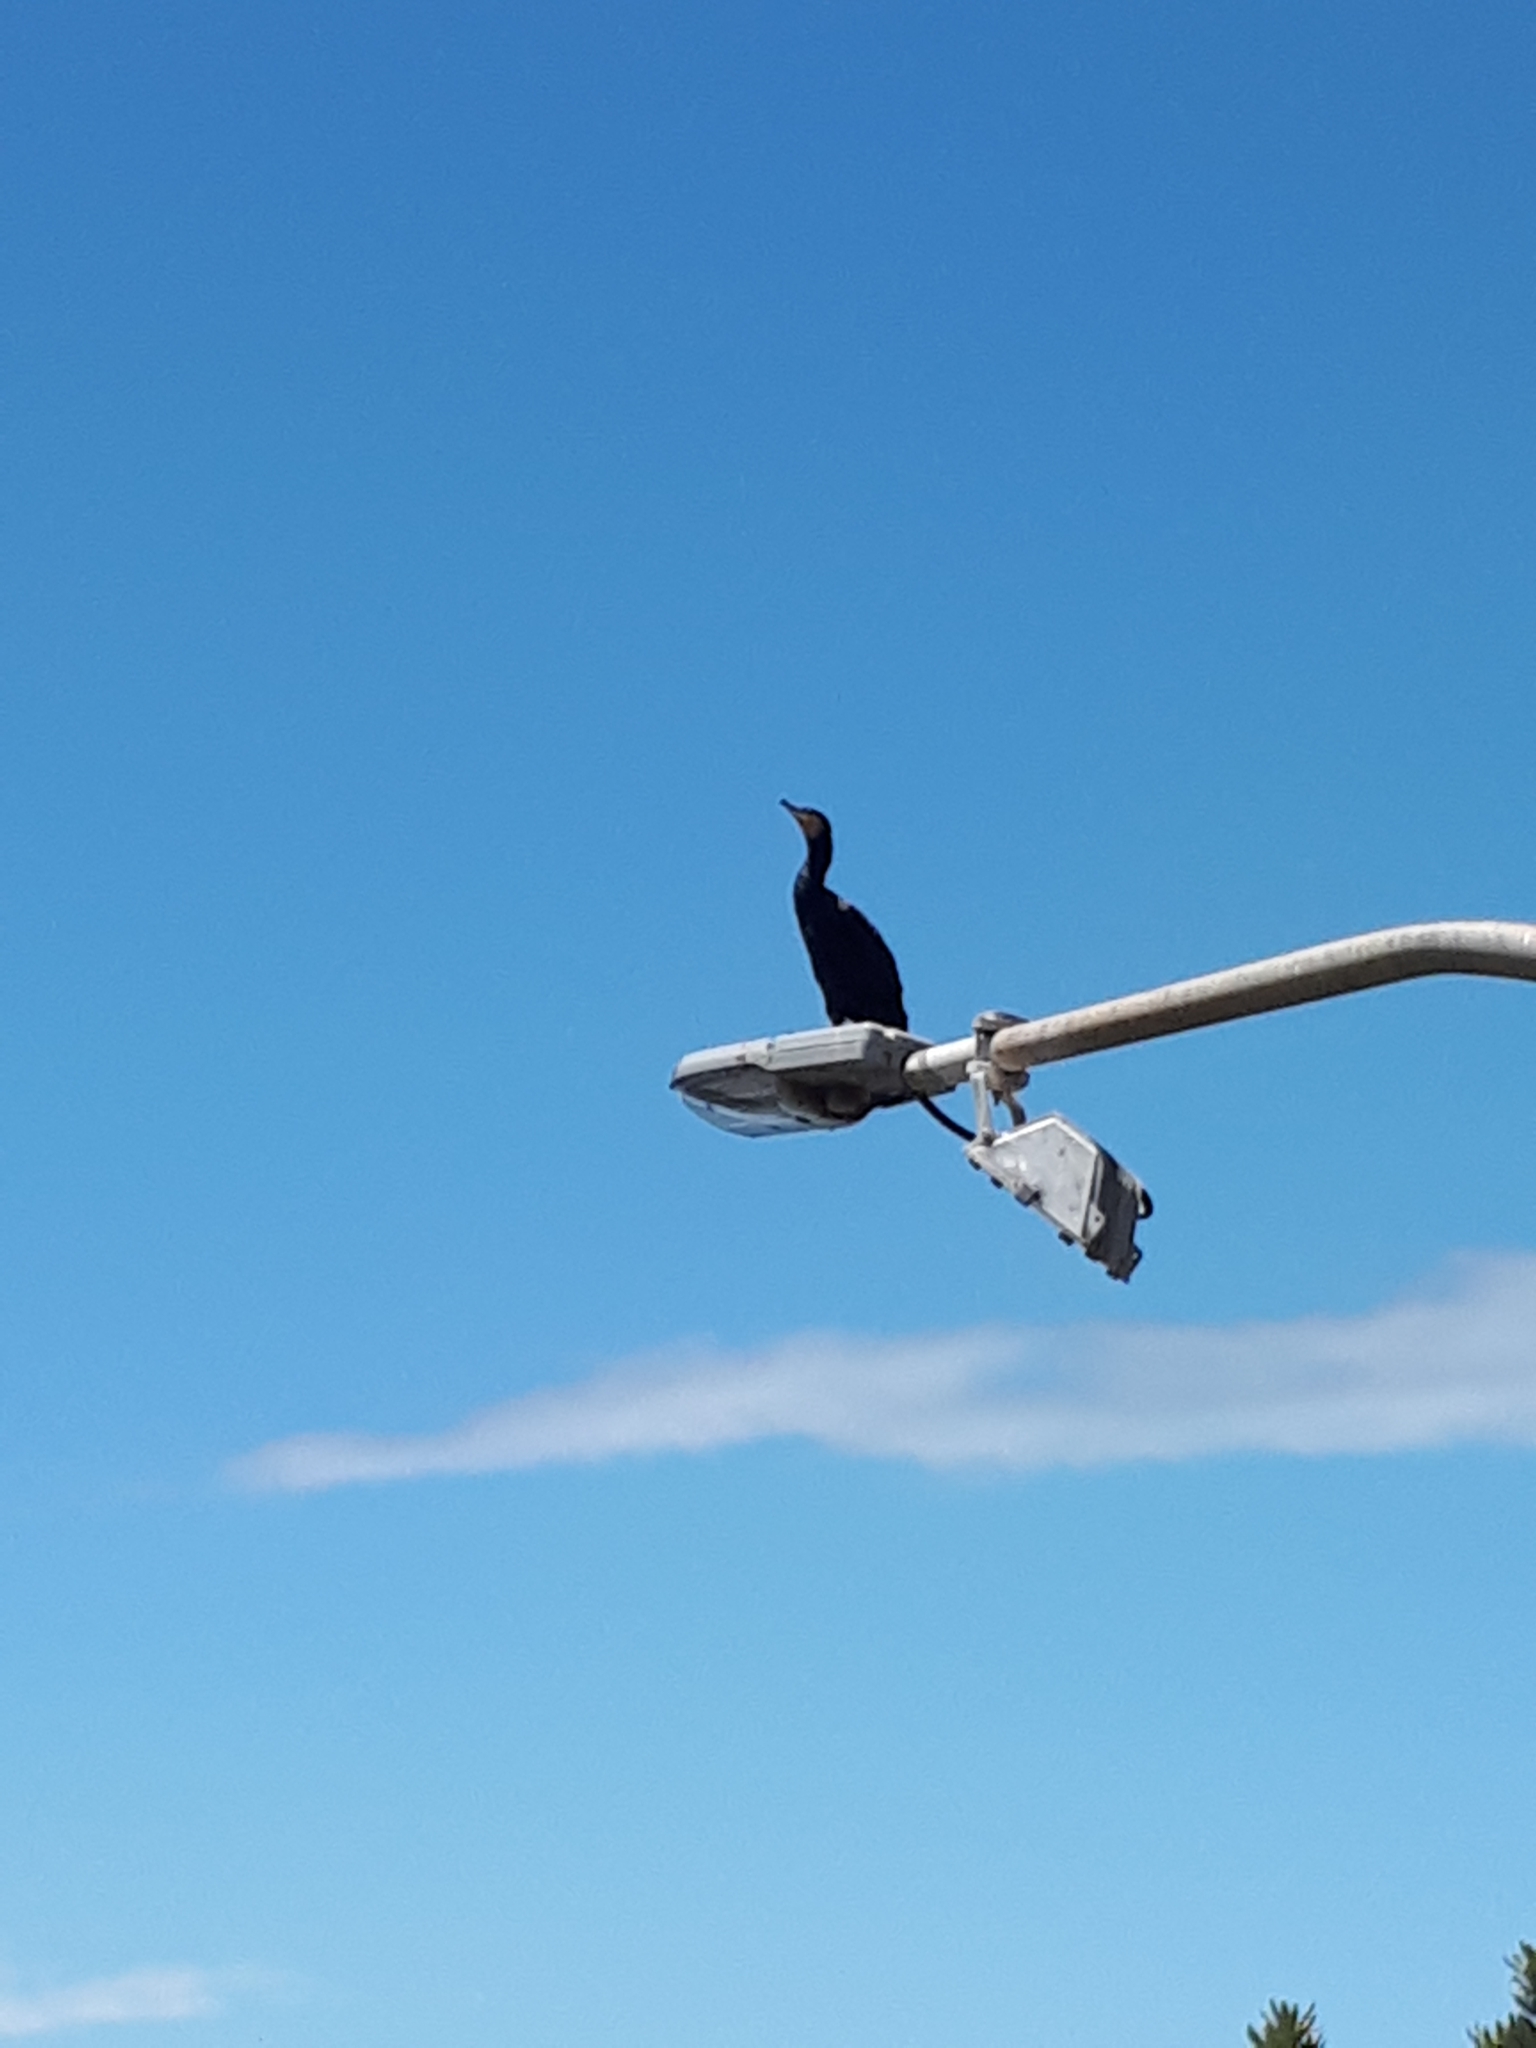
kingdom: Animalia
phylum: Chordata
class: Aves
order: Suliformes
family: Phalacrocoracidae
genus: Phalacrocorax
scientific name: Phalacrocorax carbo
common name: Great cormorant
